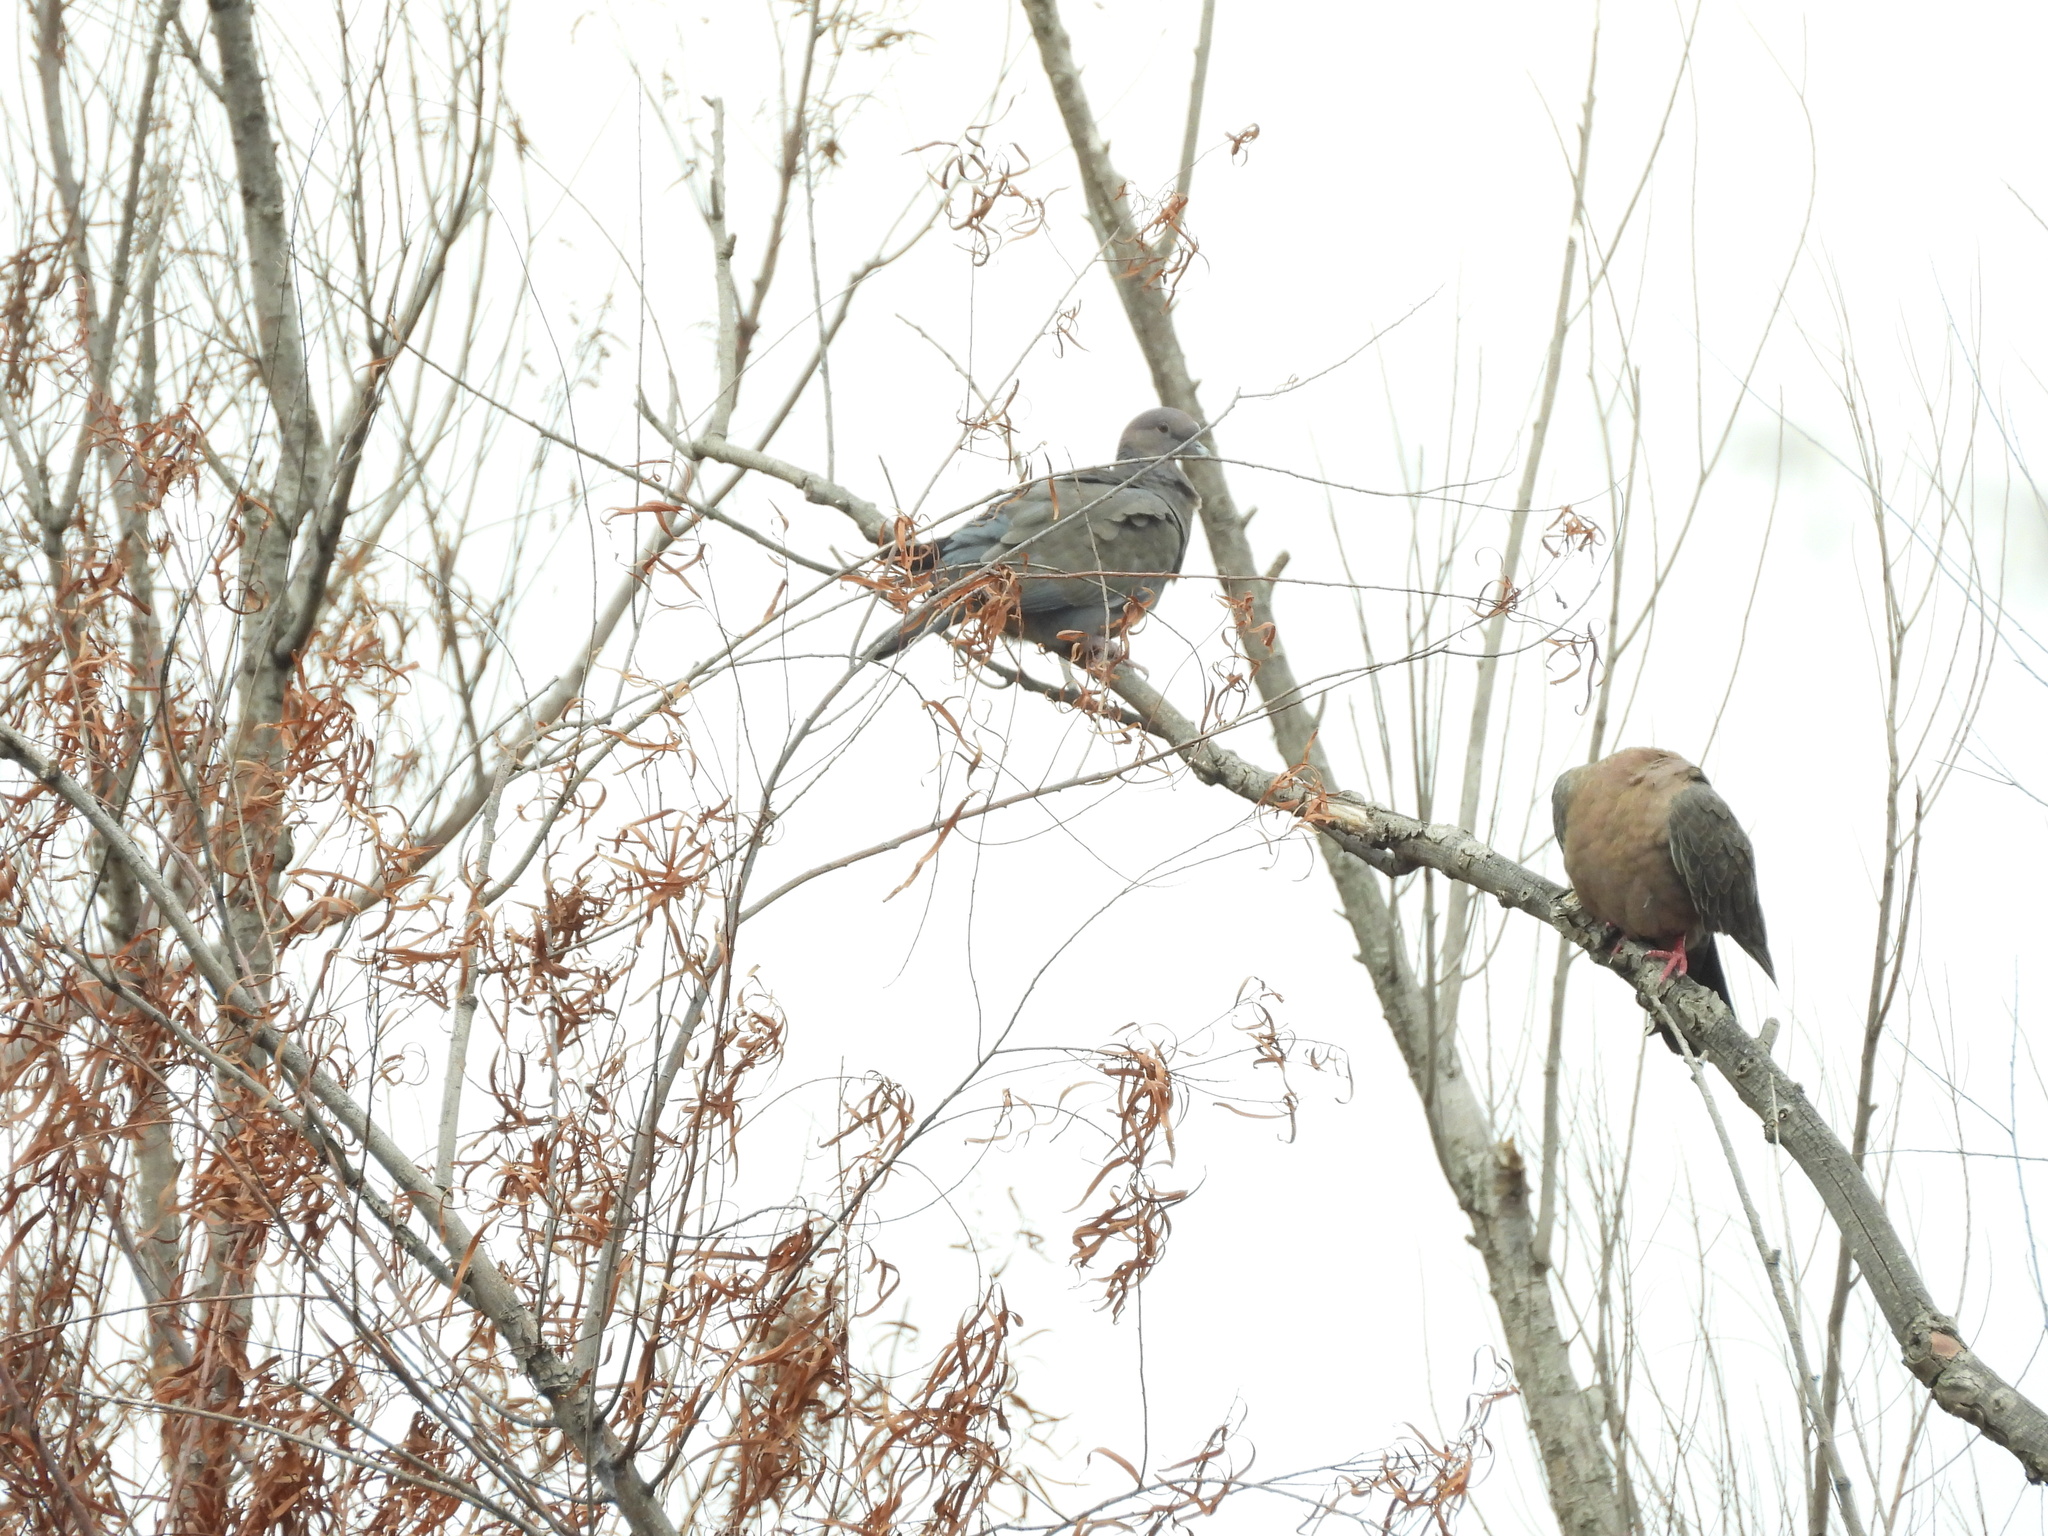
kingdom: Animalia
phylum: Chordata
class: Aves
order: Columbiformes
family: Columbidae
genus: Patagioenas
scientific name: Patagioenas picazuro
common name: Picazuro pigeon
